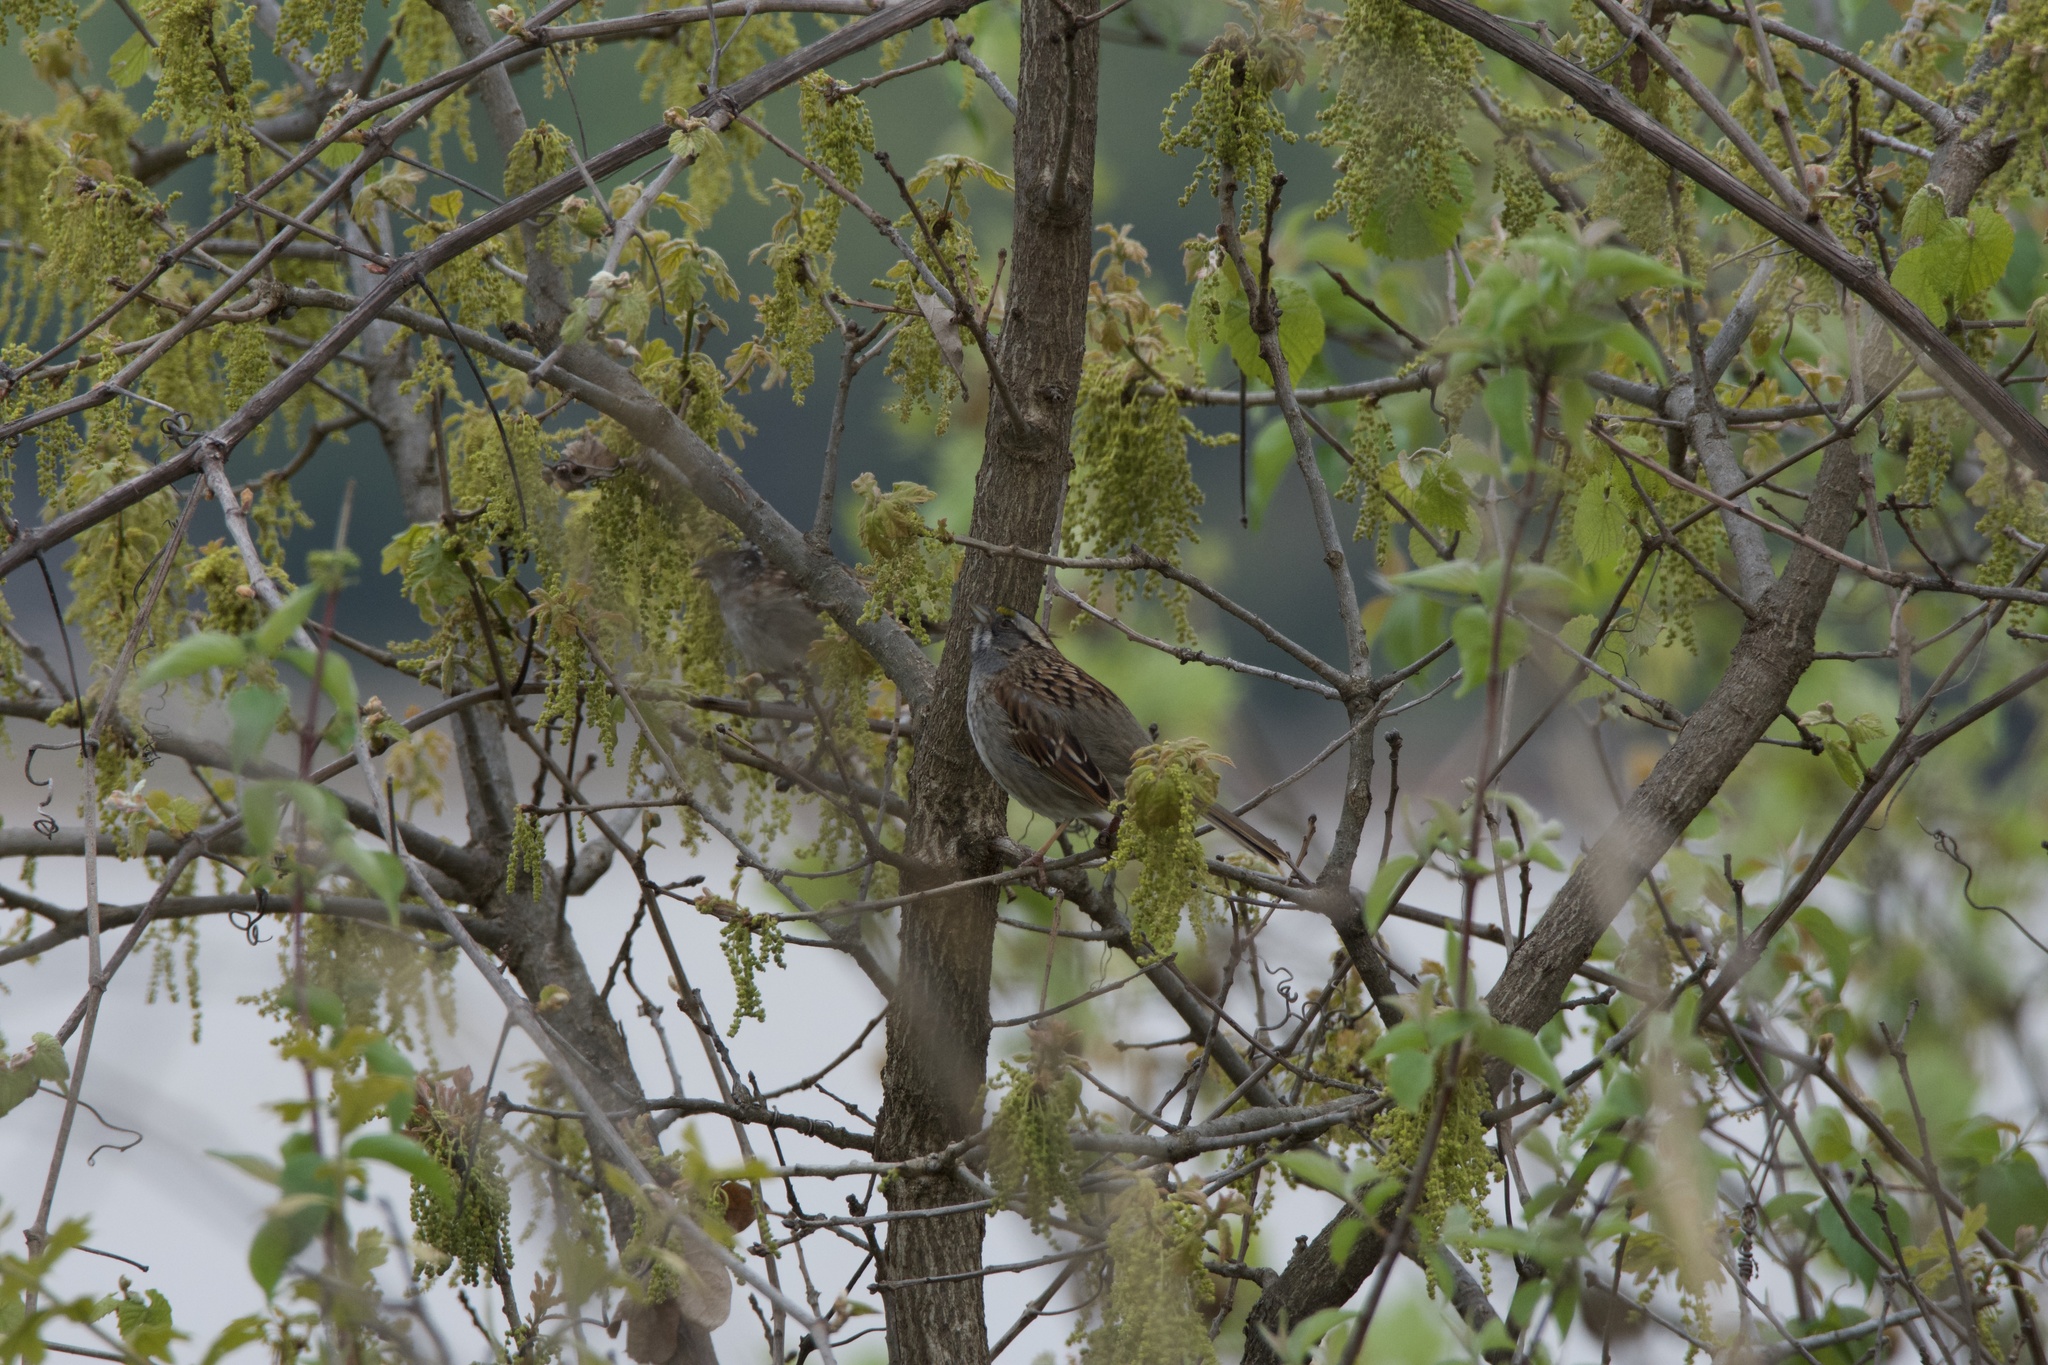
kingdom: Animalia
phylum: Chordata
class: Aves
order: Passeriformes
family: Passerellidae
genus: Zonotrichia
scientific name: Zonotrichia albicollis
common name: White-throated sparrow
